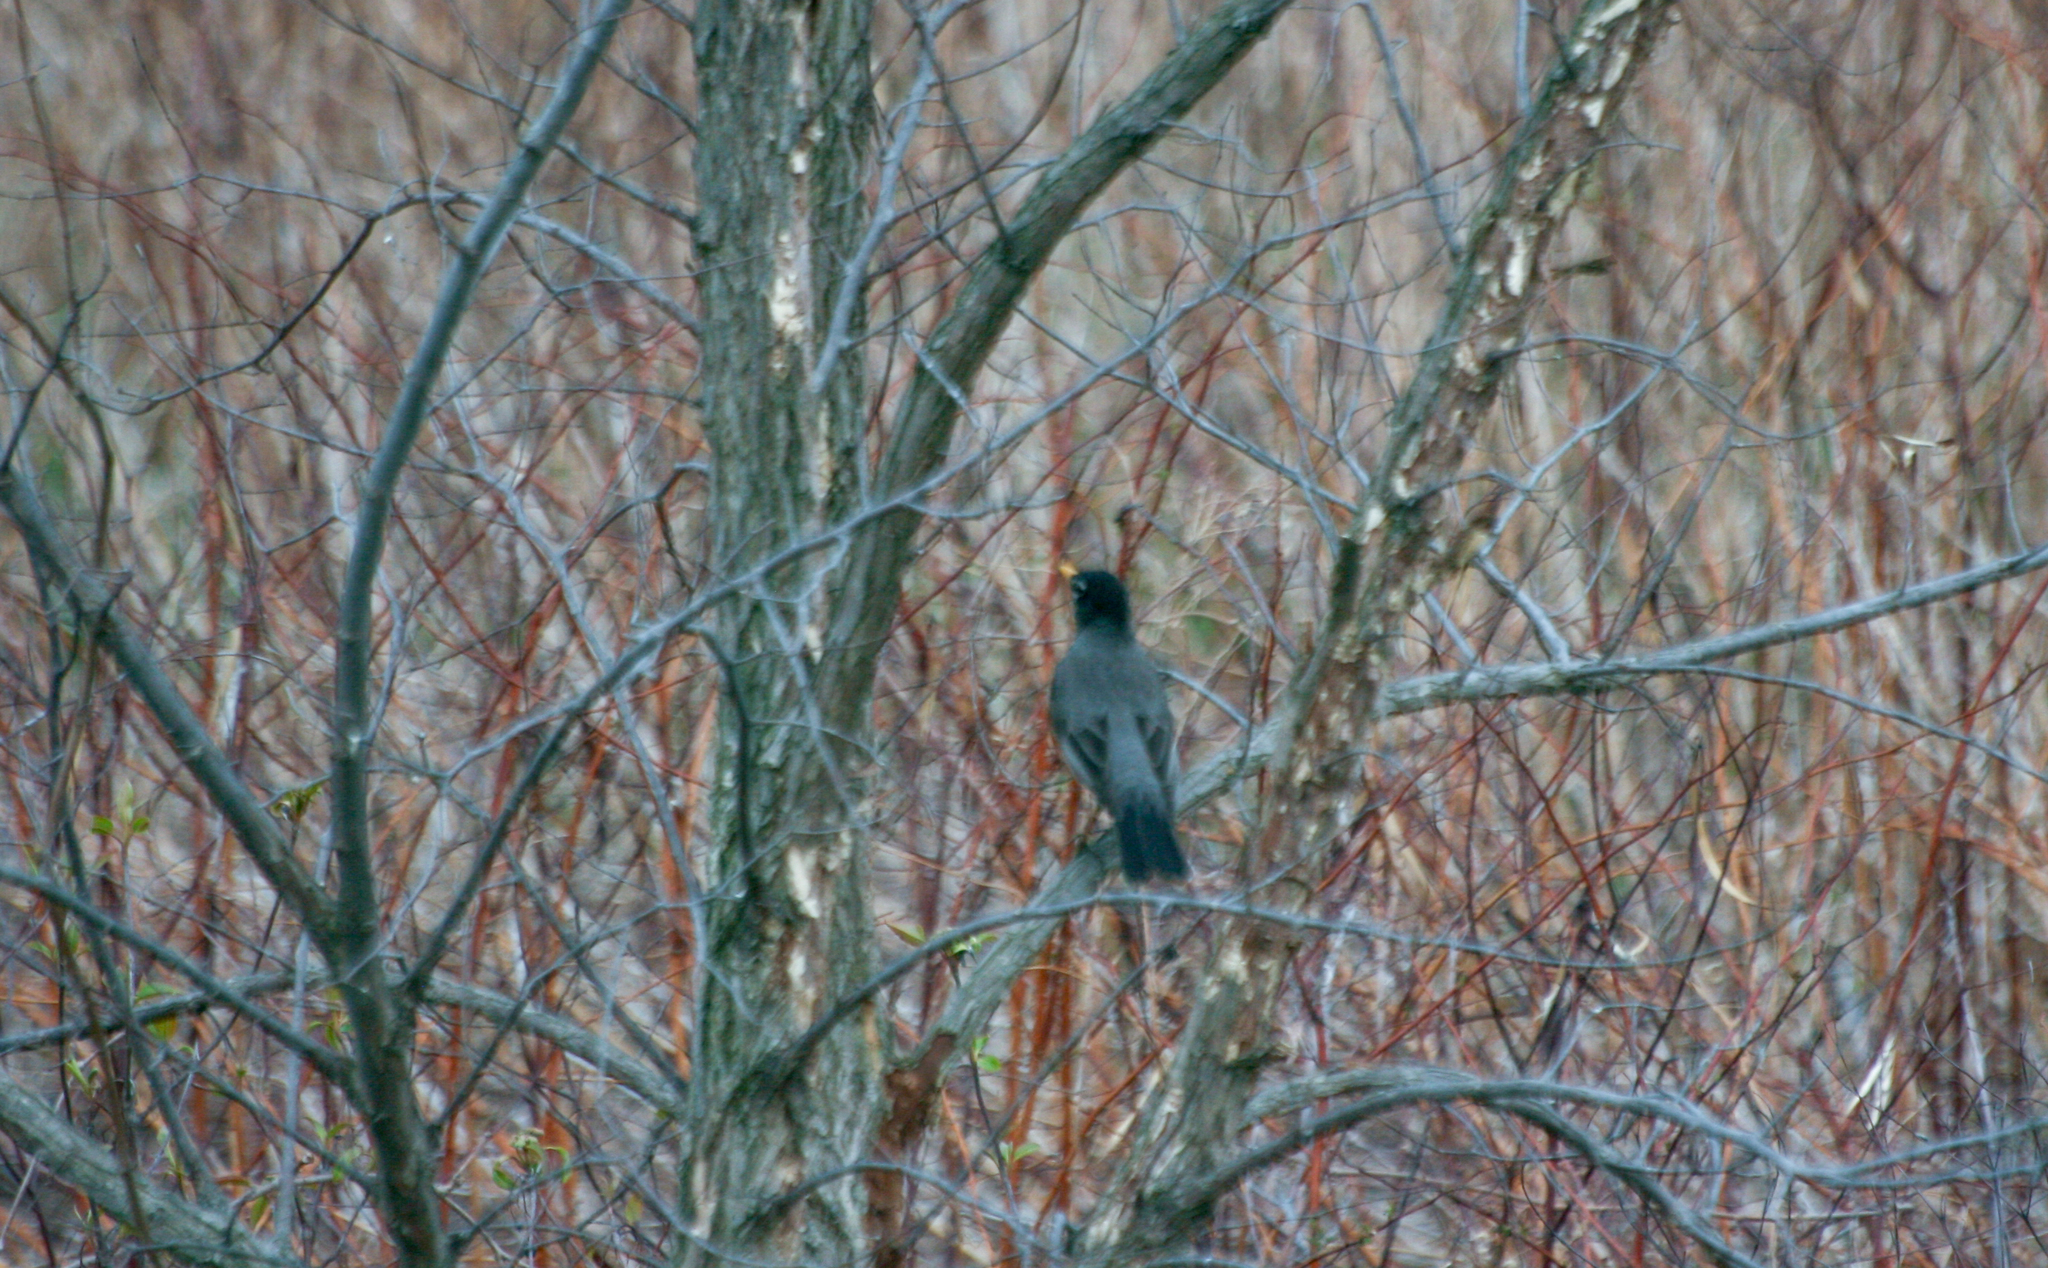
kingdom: Animalia
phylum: Chordata
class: Aves
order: Passeriformes
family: Turdidae
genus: Turdus
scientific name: Turdus migratorius
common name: American robin
